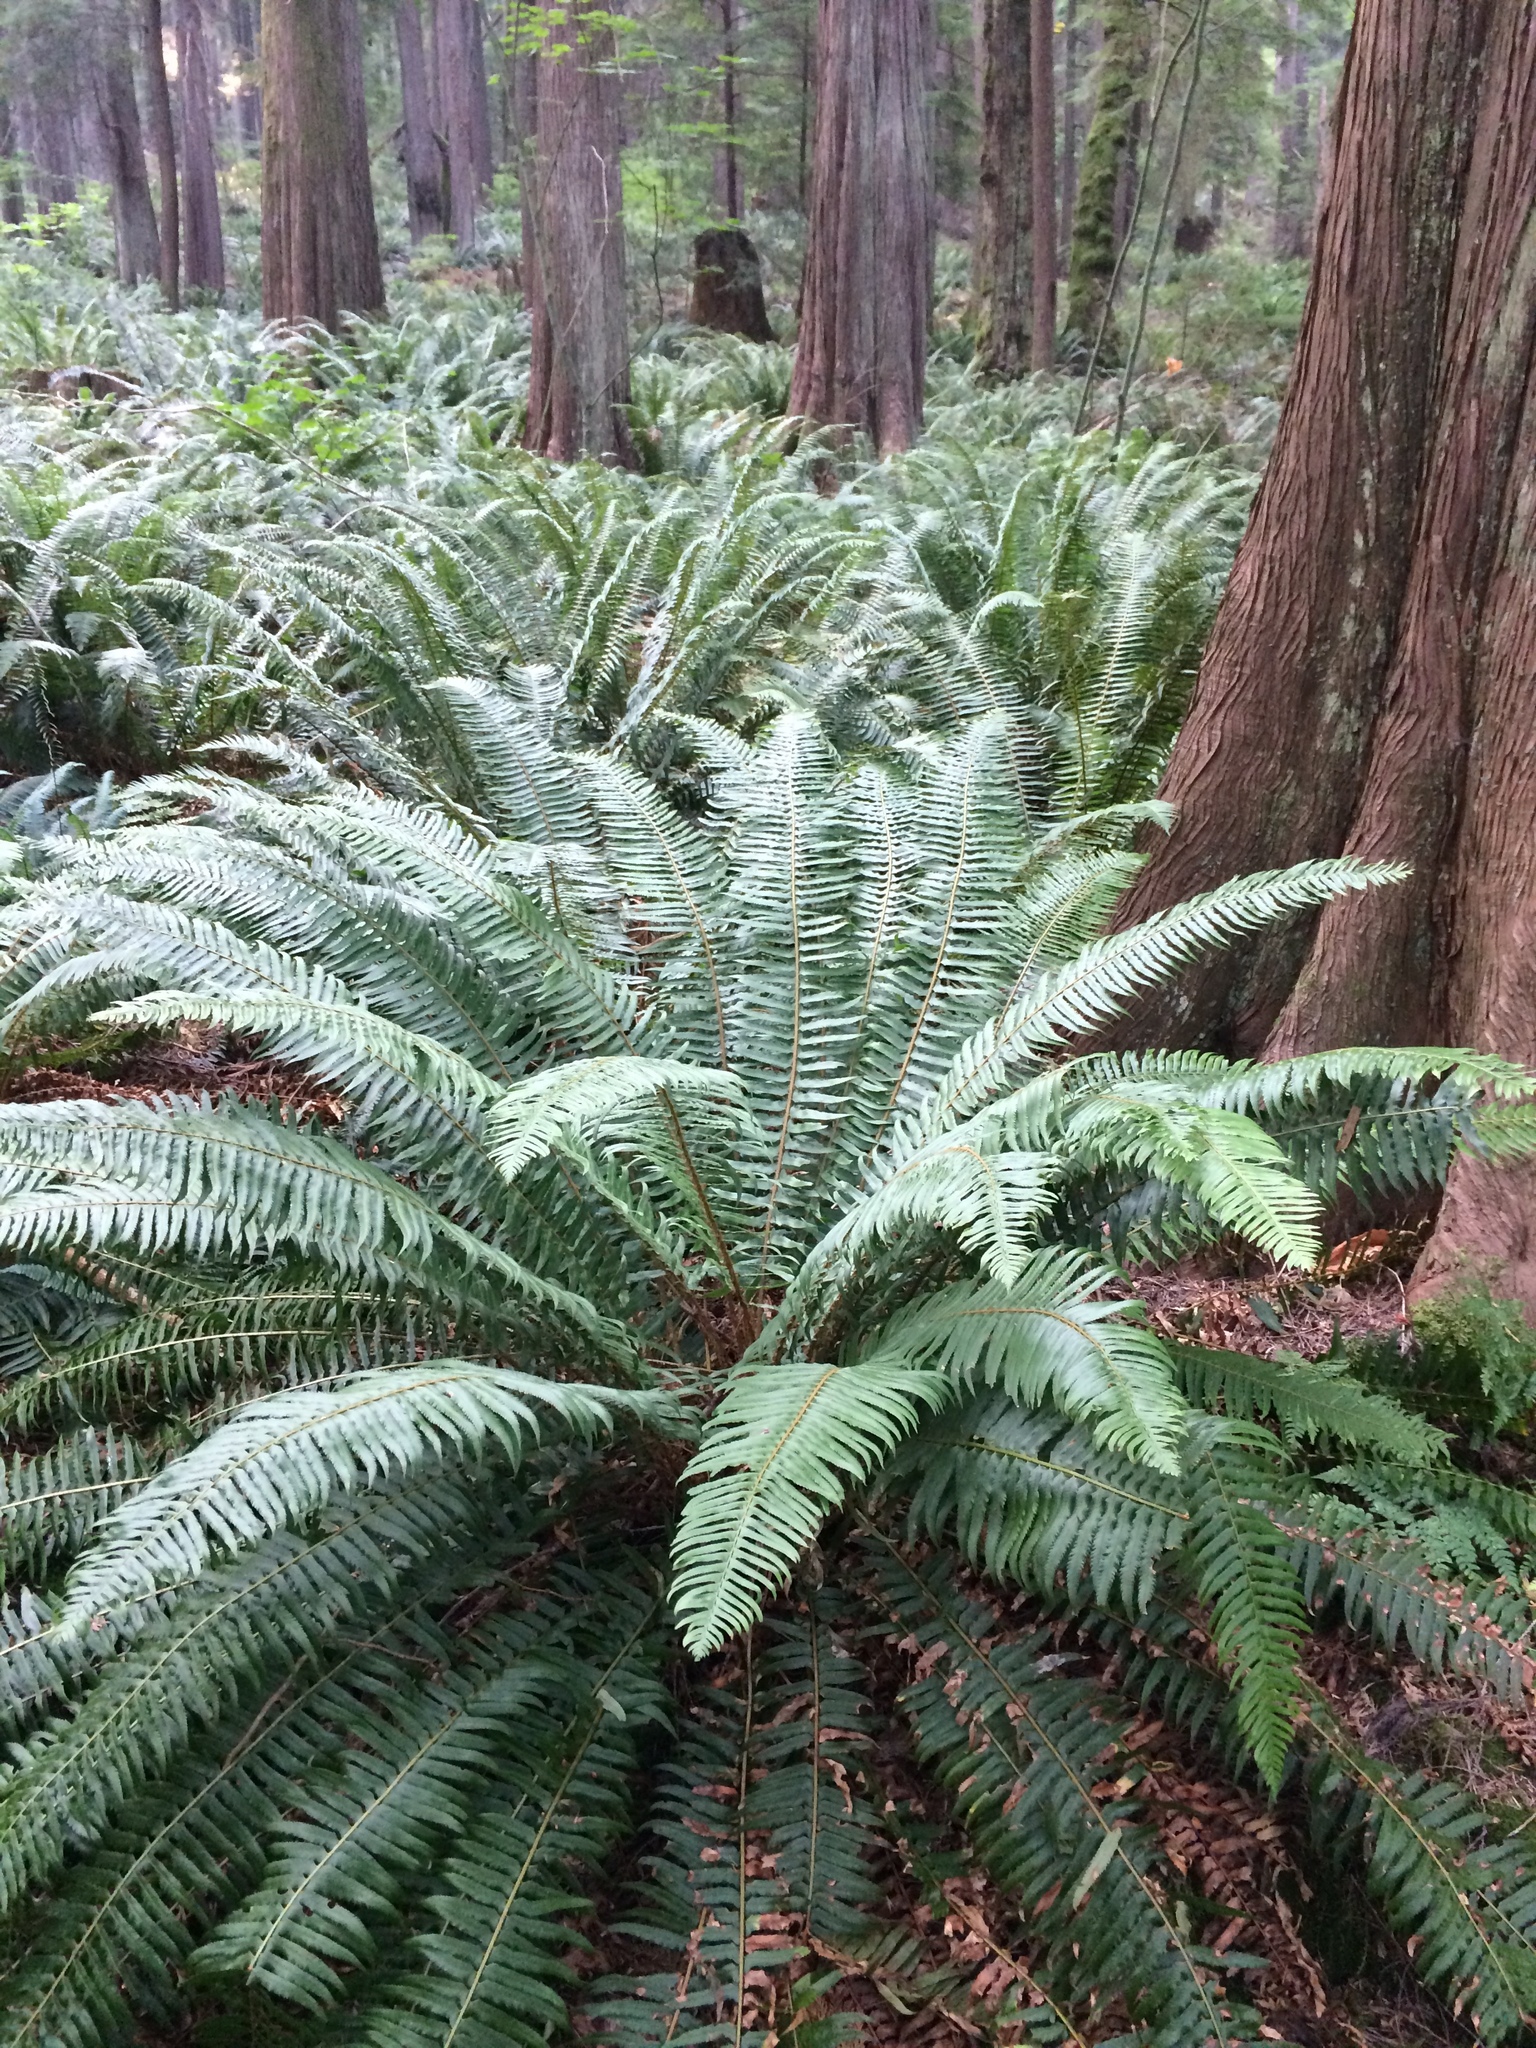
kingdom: Plantae
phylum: Tracheophyta
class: Polypodiopsida
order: Polypodiales
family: Dryopteridaceae
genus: Polystichum
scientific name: Polystichum munitum
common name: Western sword-fern
